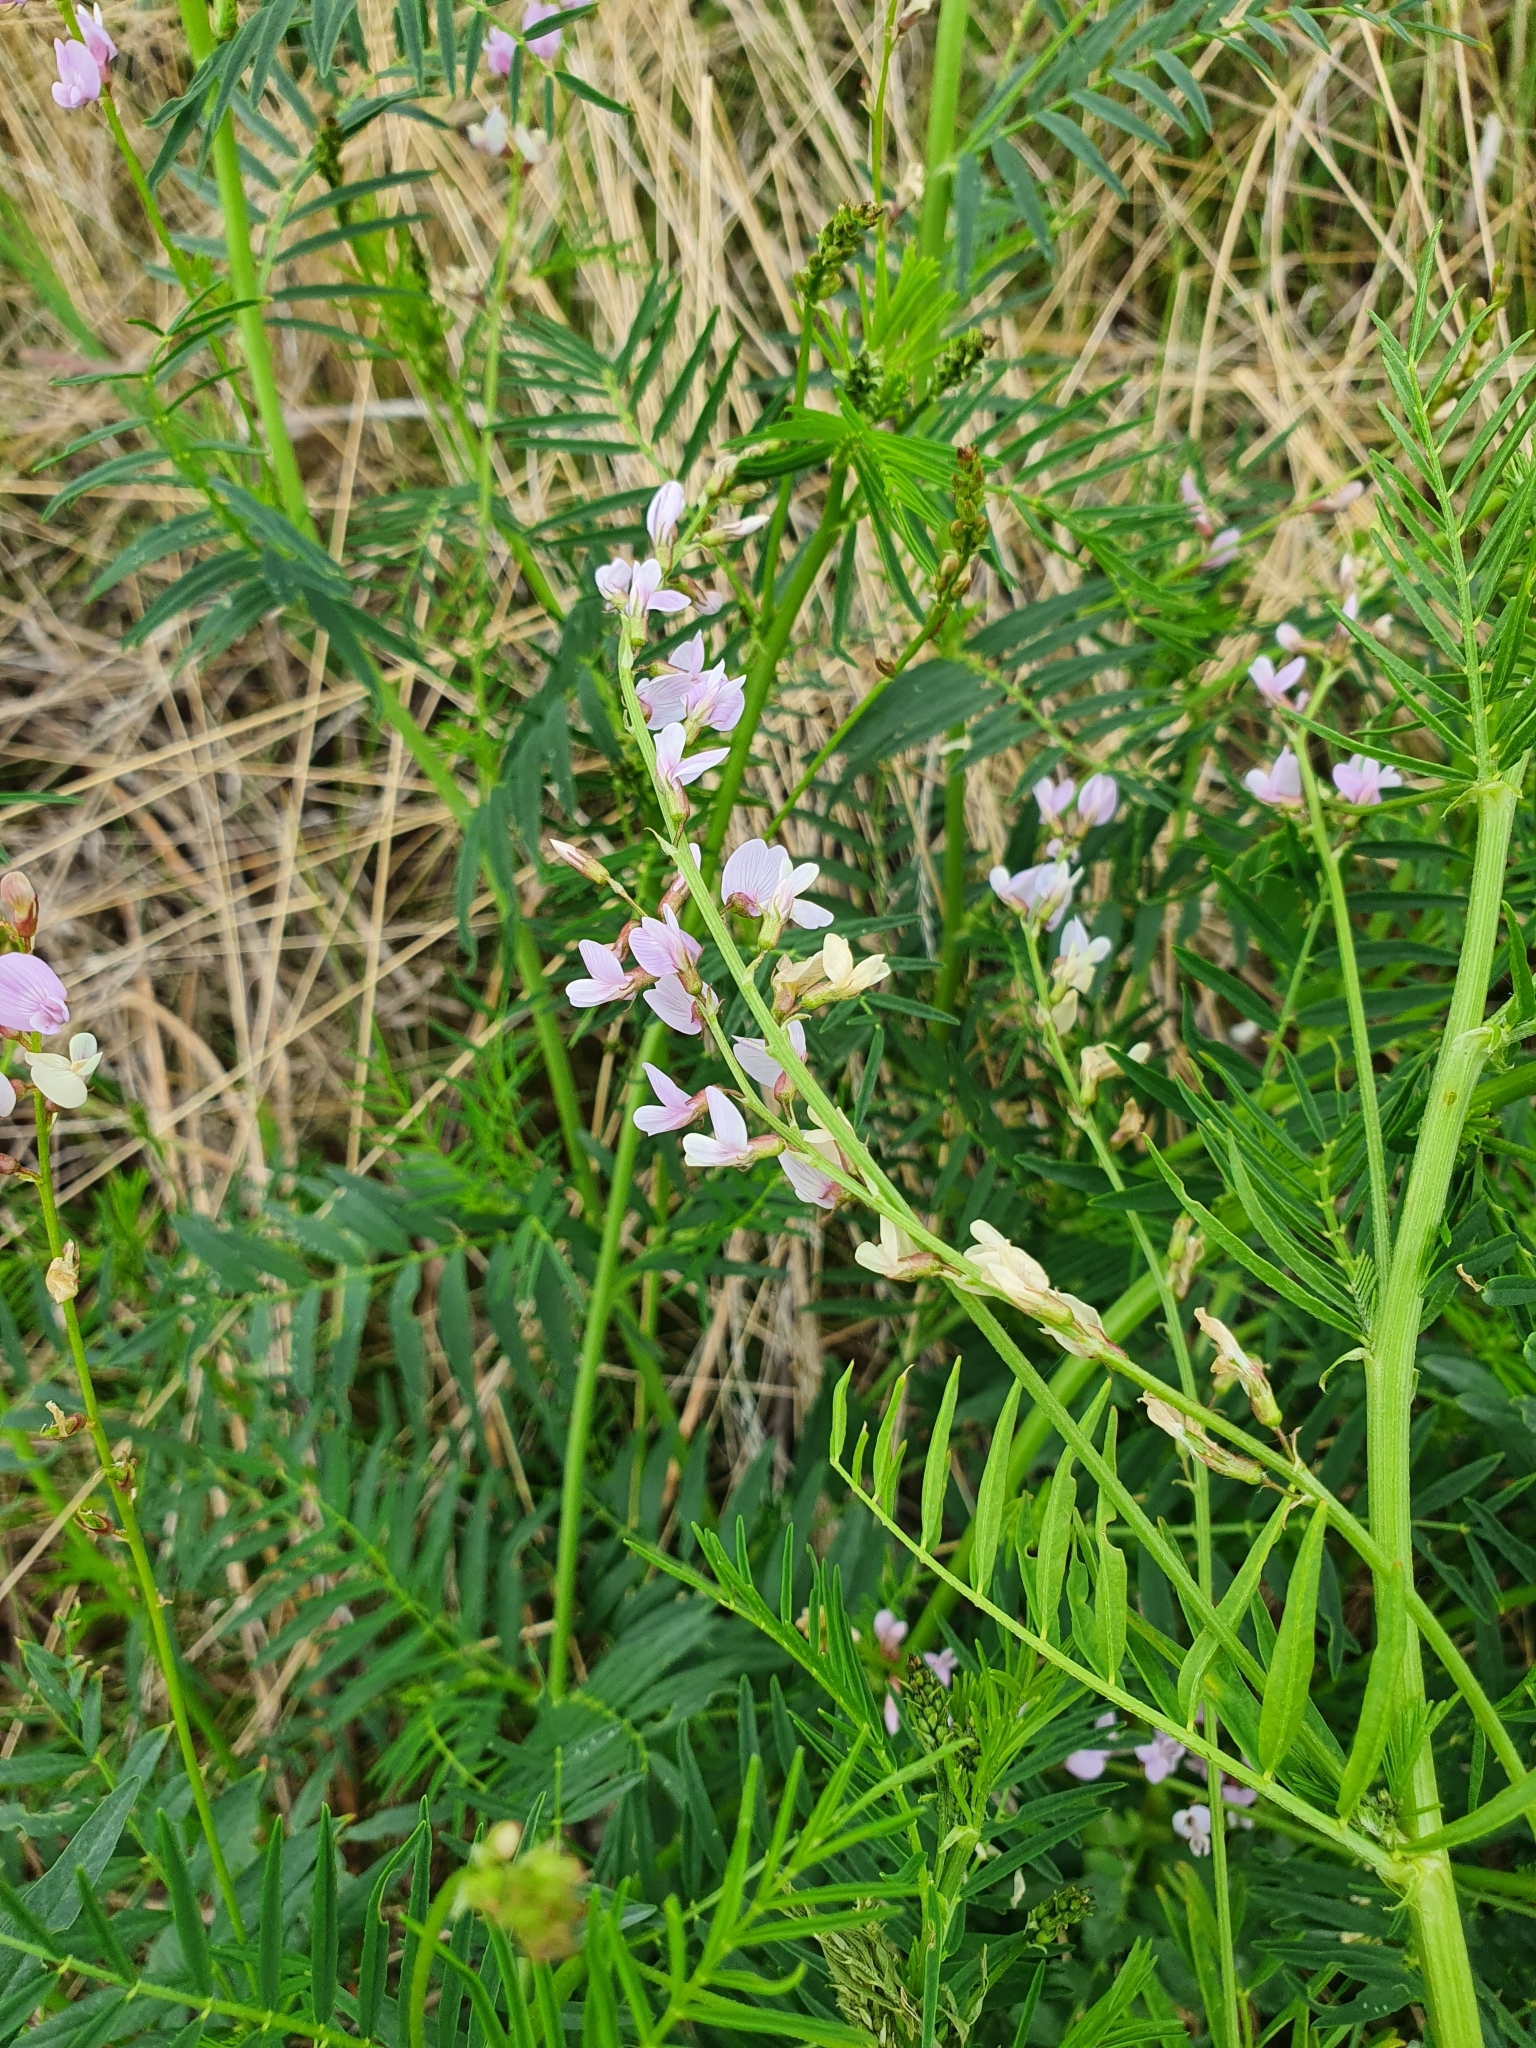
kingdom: Plantae
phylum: Tracheophyta
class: Magnoliopsida
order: Fabales
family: Fabaceae
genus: Astragalus
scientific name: Astragalus sulcatus
